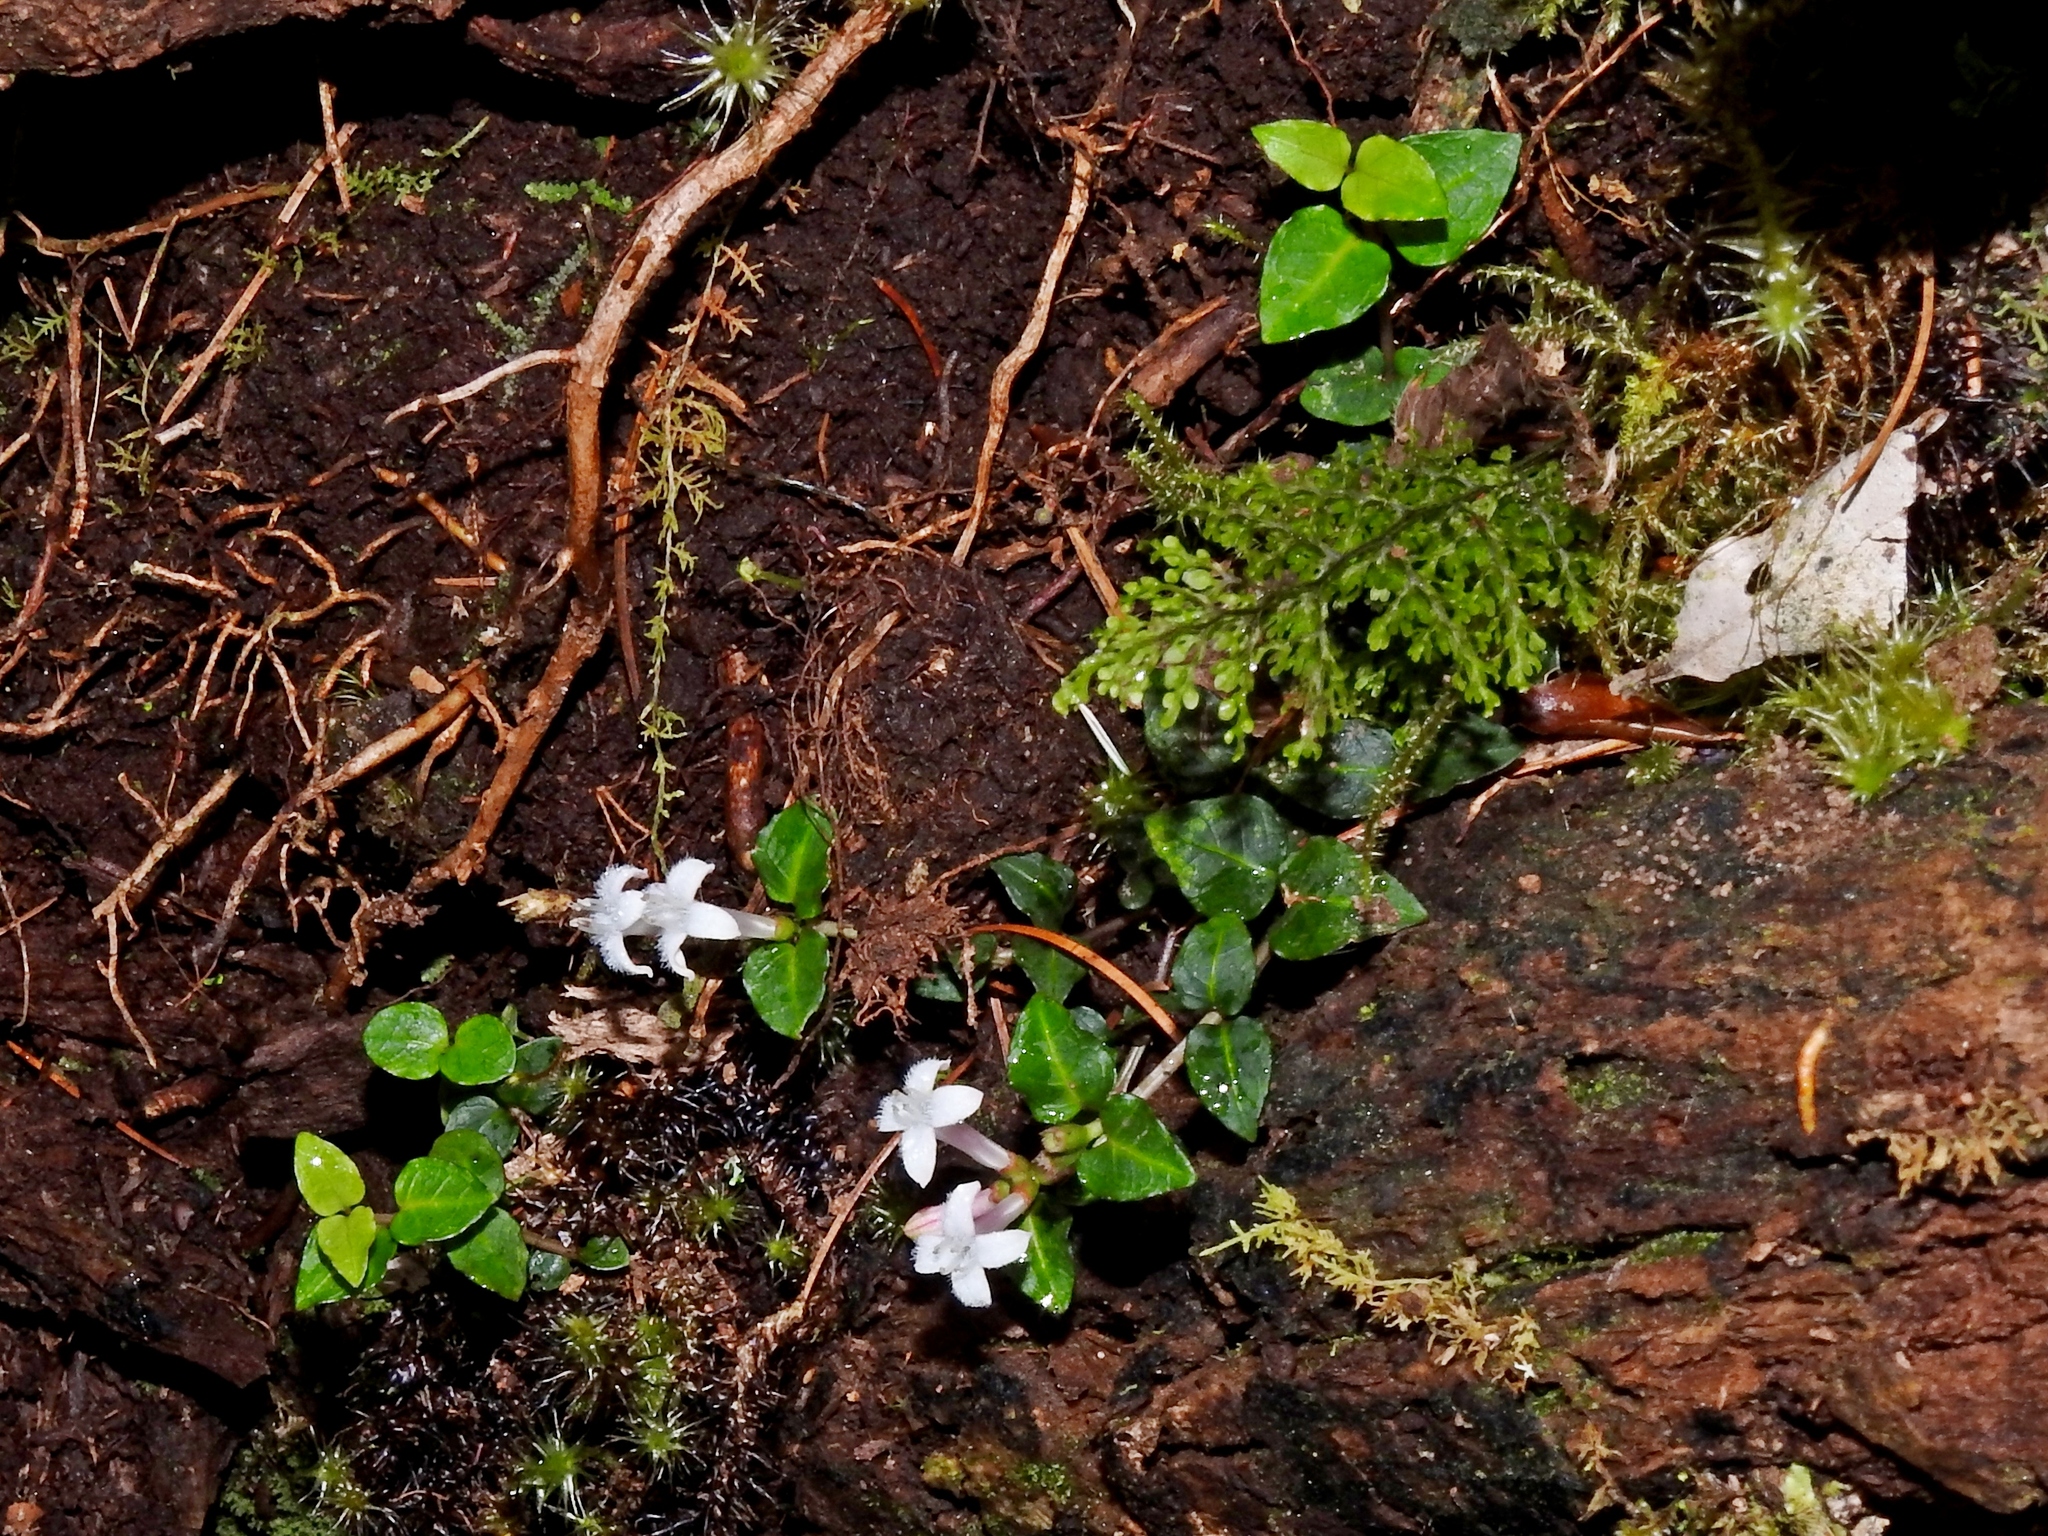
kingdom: Plantae
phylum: Tracheophyta
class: Magnoliopsida
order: Gentianales
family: Rubiaceae
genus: Mitchella
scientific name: Mitchella undulata
